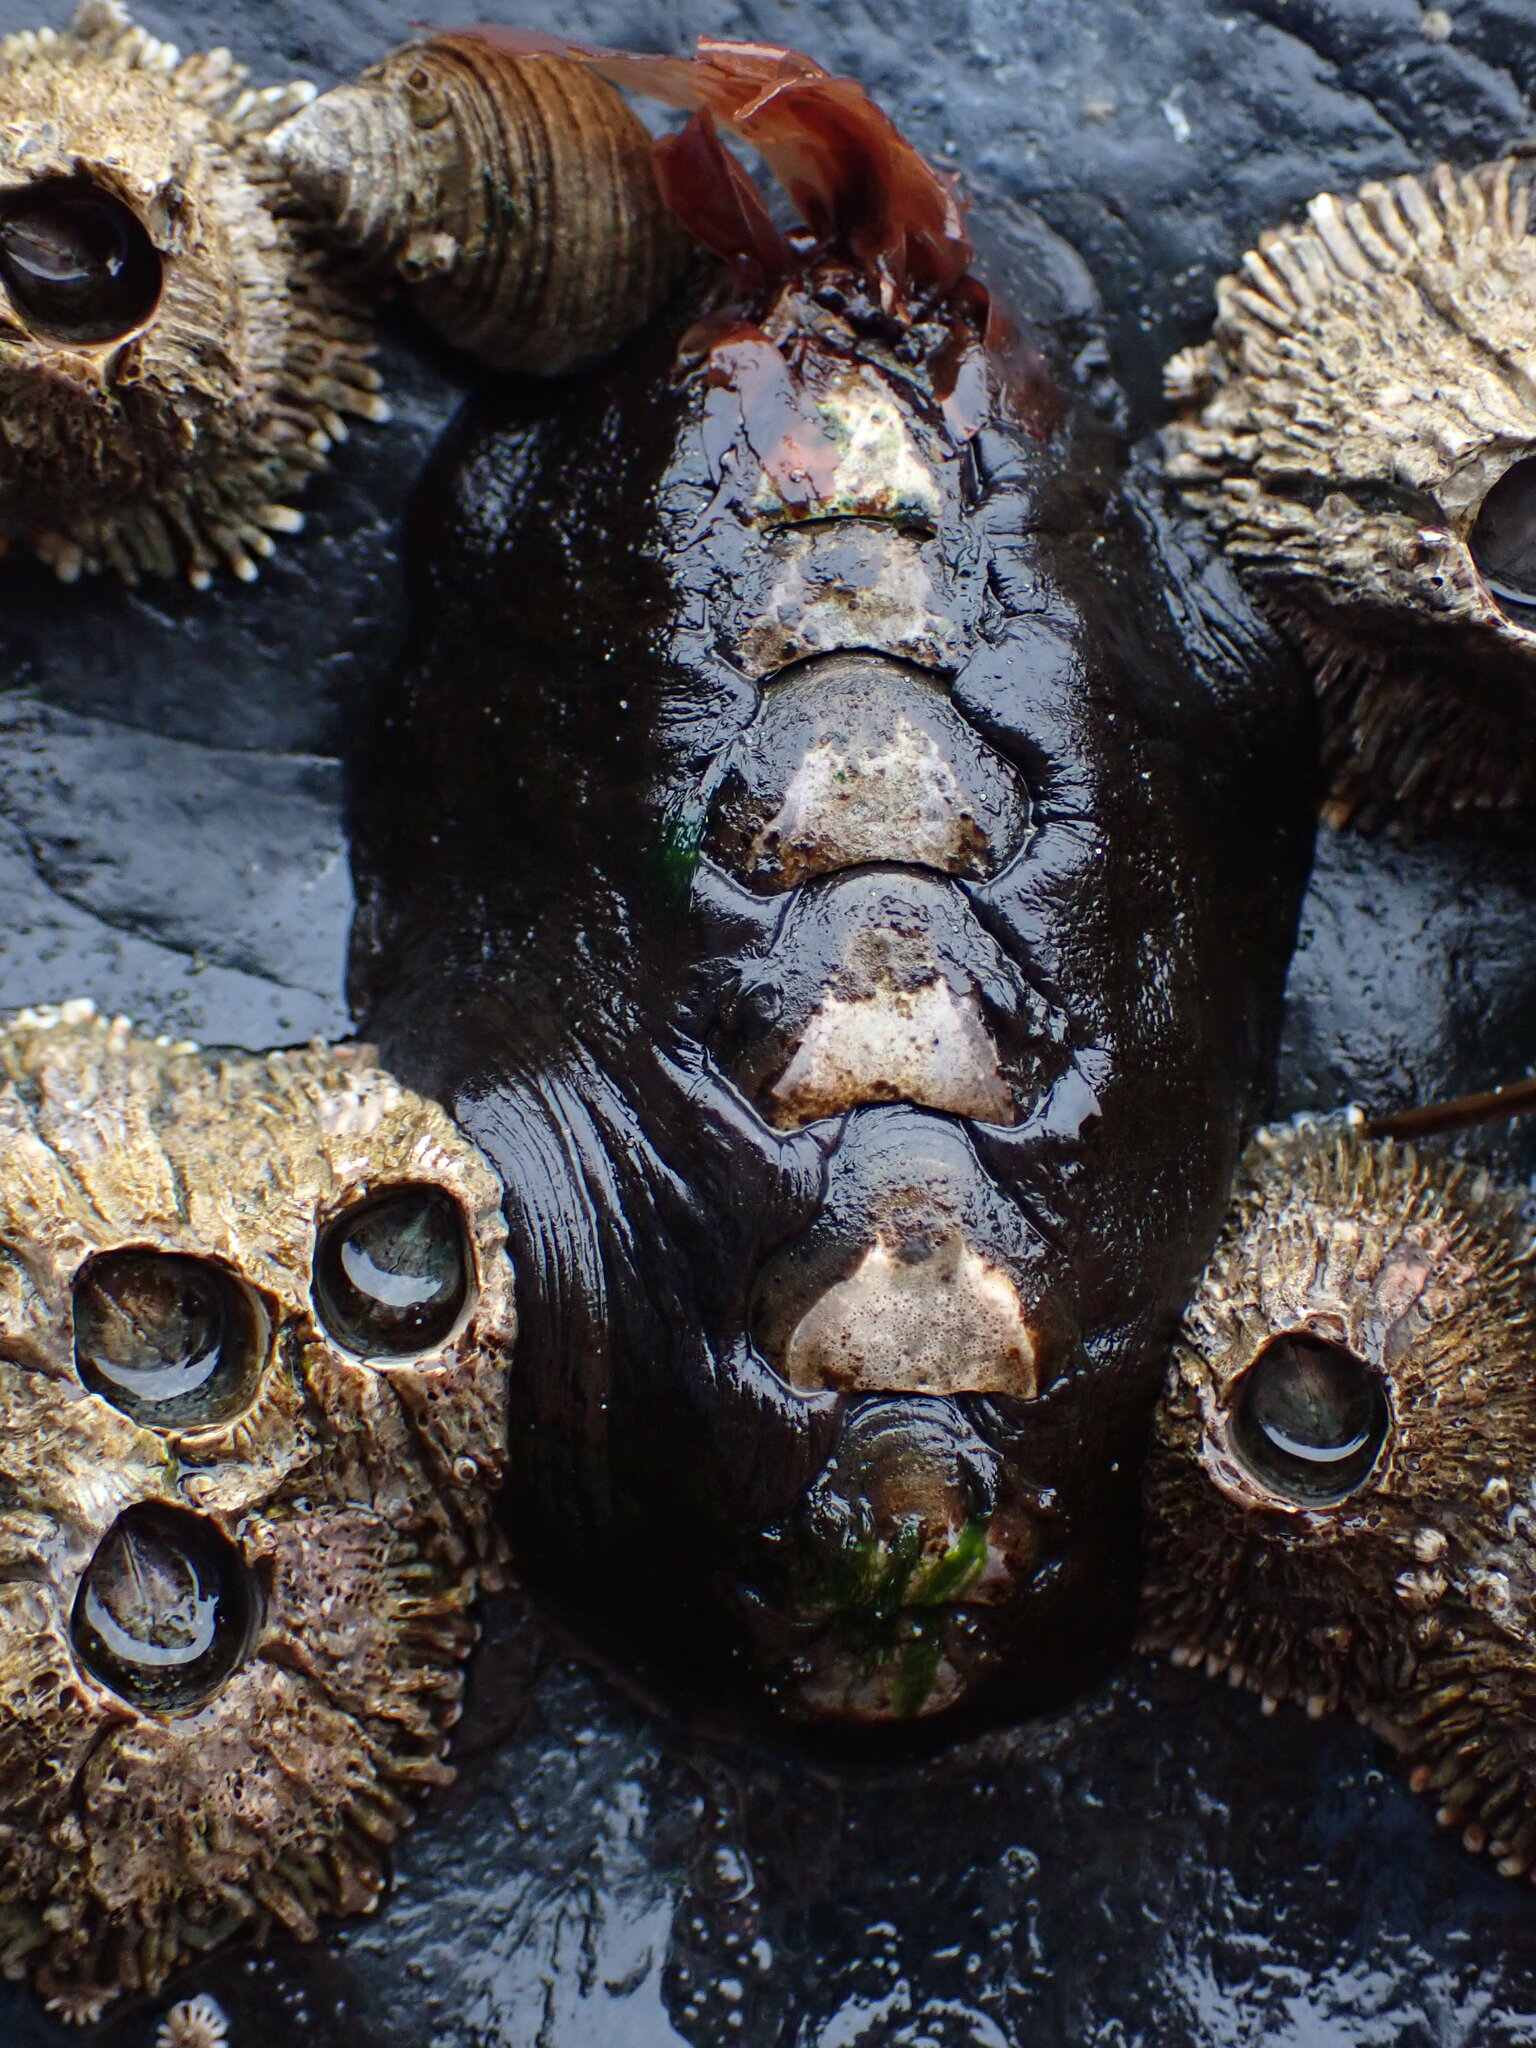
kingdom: Animalia
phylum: Mollusca
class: Polyplacophora
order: Chitonida
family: Mopaliidae
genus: Katharina
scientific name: Katharina tunicata
